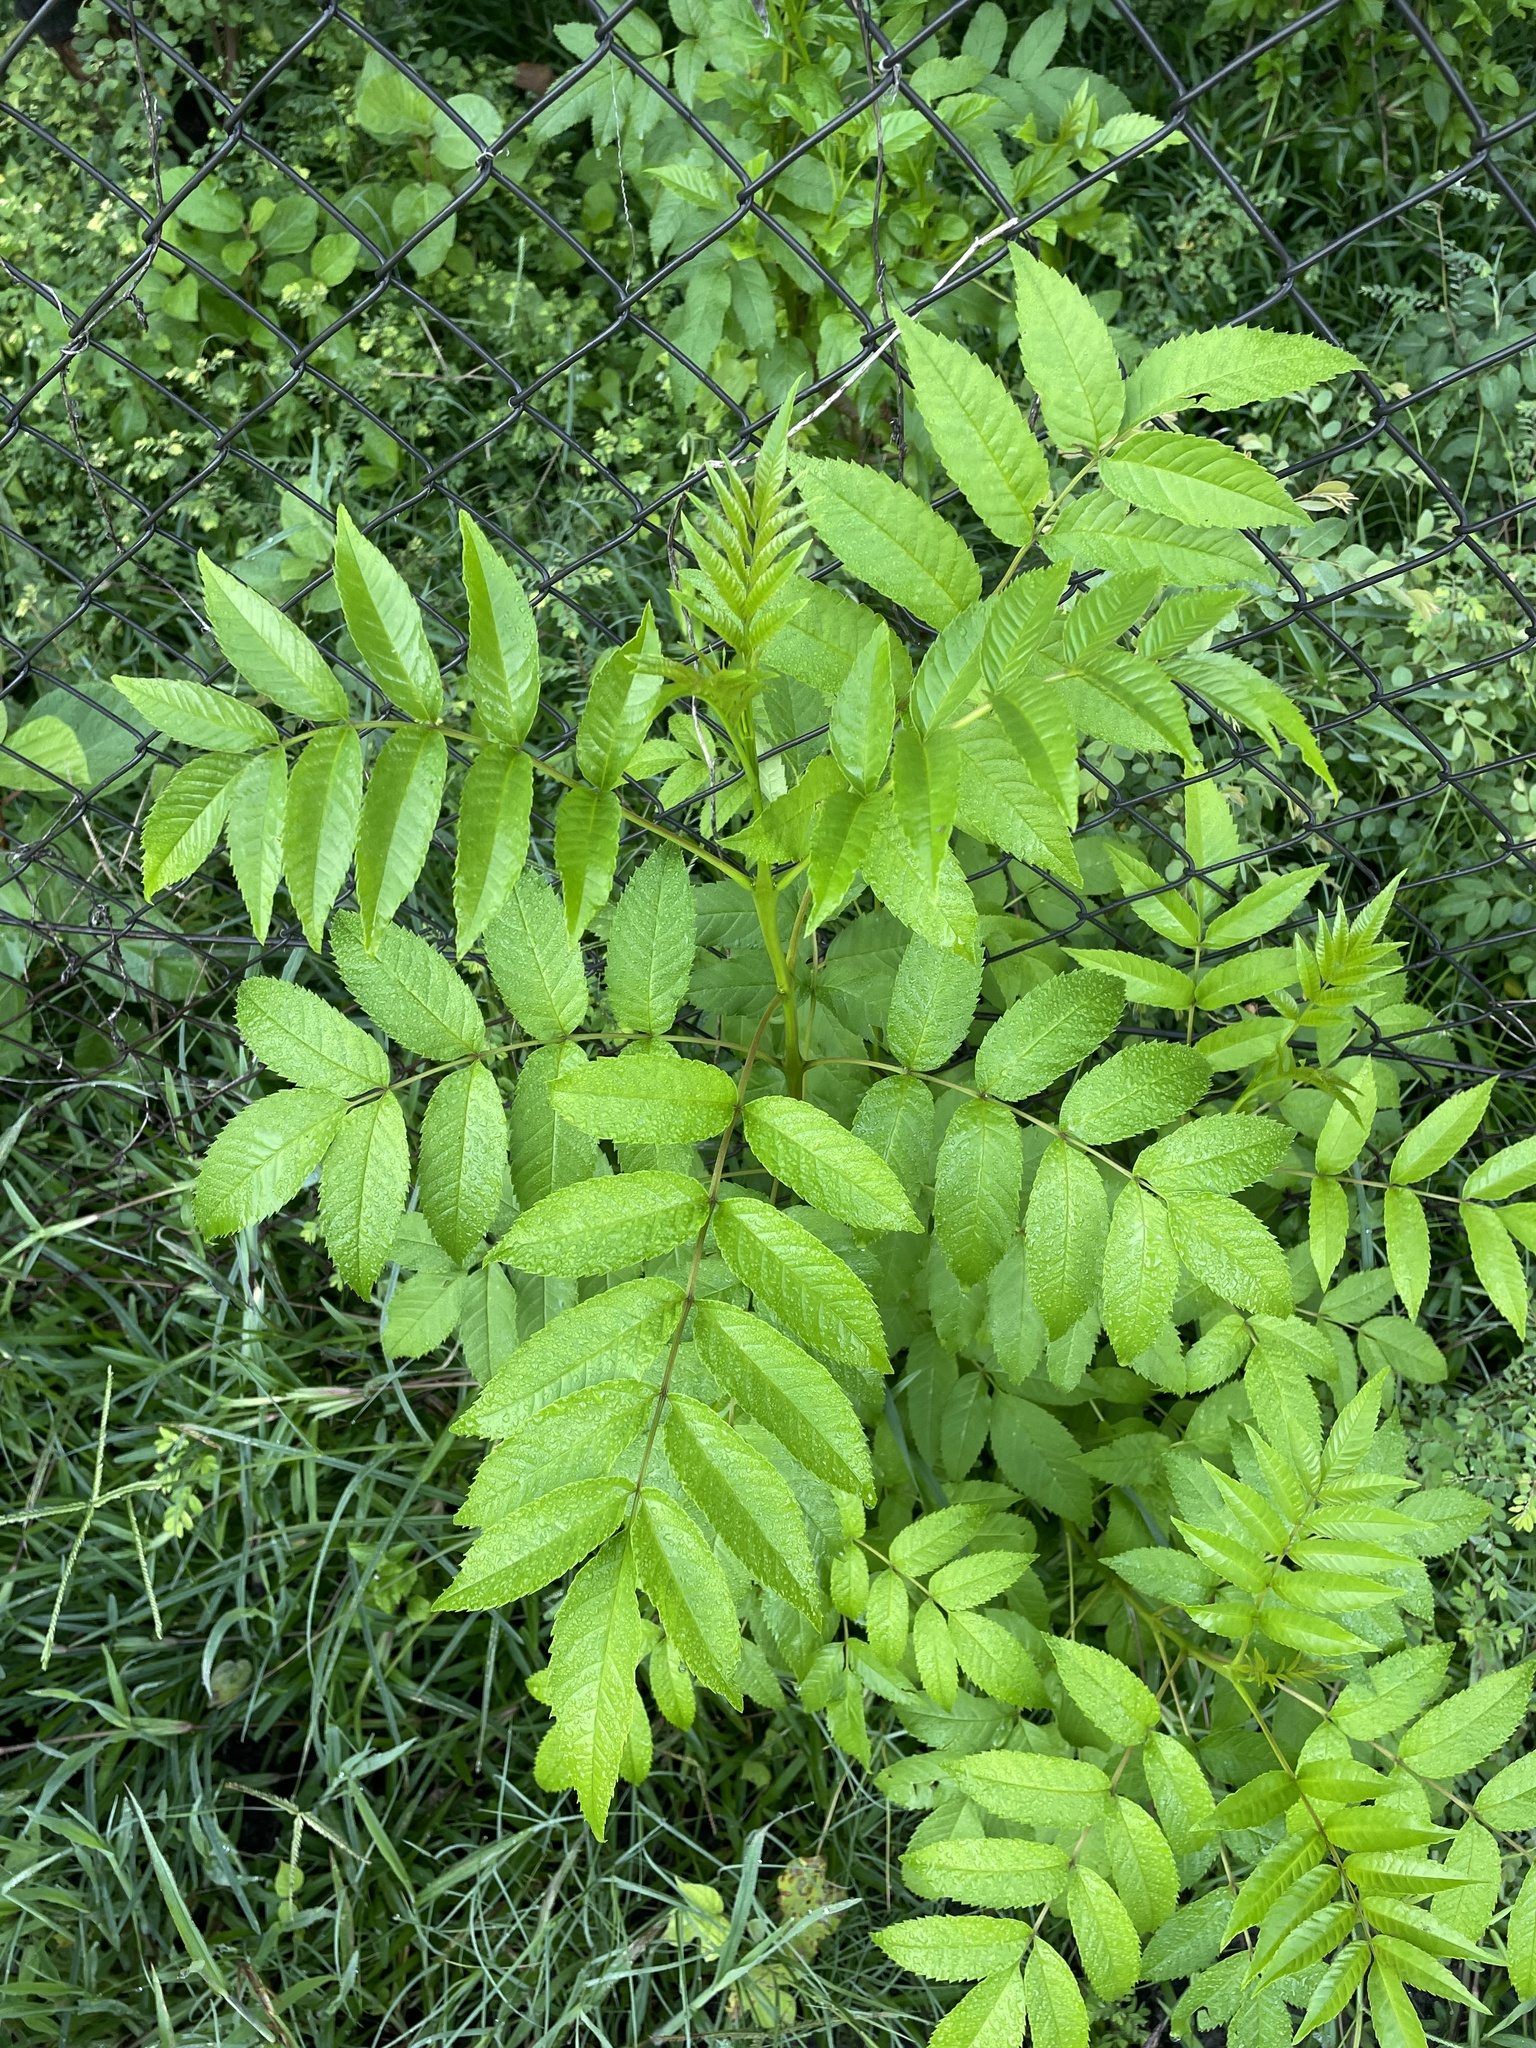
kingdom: Plantae
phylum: Tracheophyta
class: Magnoliopsida
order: Lamiales
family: Bignoniaceae
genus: Tecoma
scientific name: Tecoma stans
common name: Yellow trumpetbush
